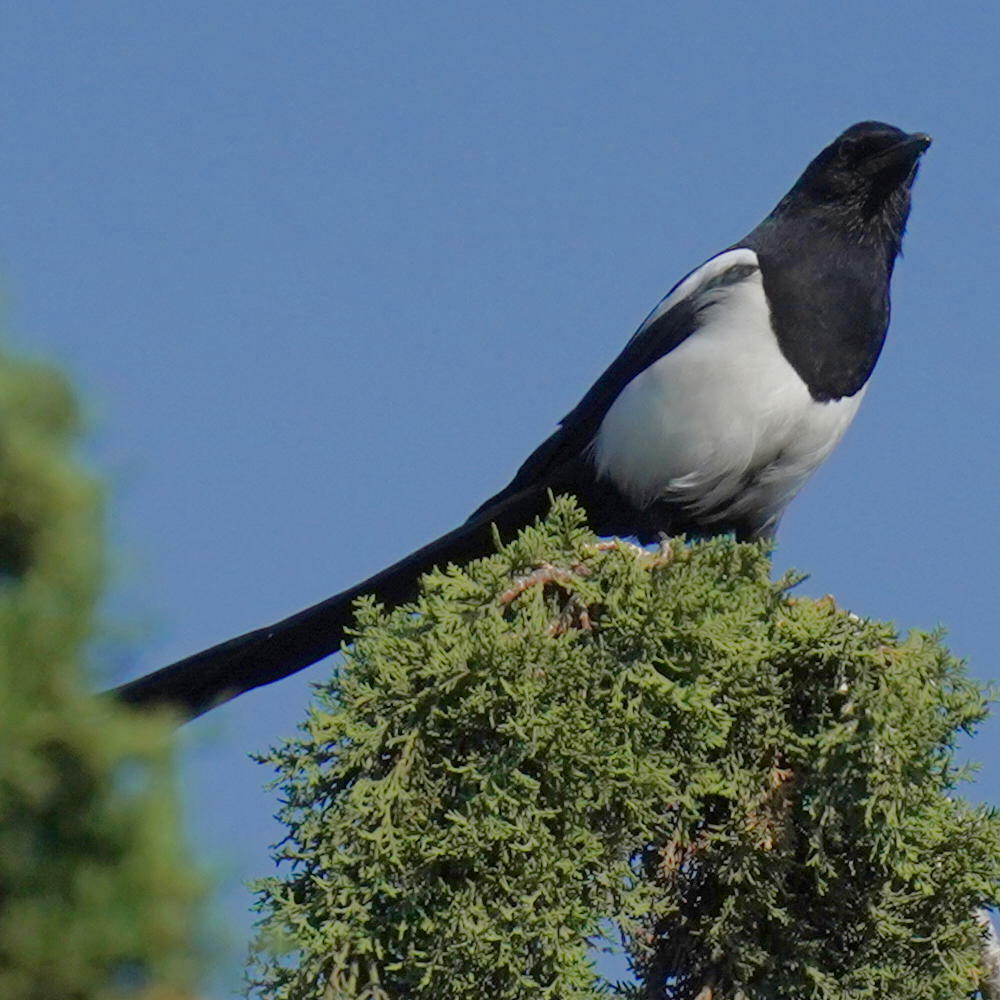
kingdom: Animalia
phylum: Chordata
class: Aves
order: Passeriformes
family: Corvidae
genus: Pica
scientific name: Pica pica
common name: Eurasian magpie
